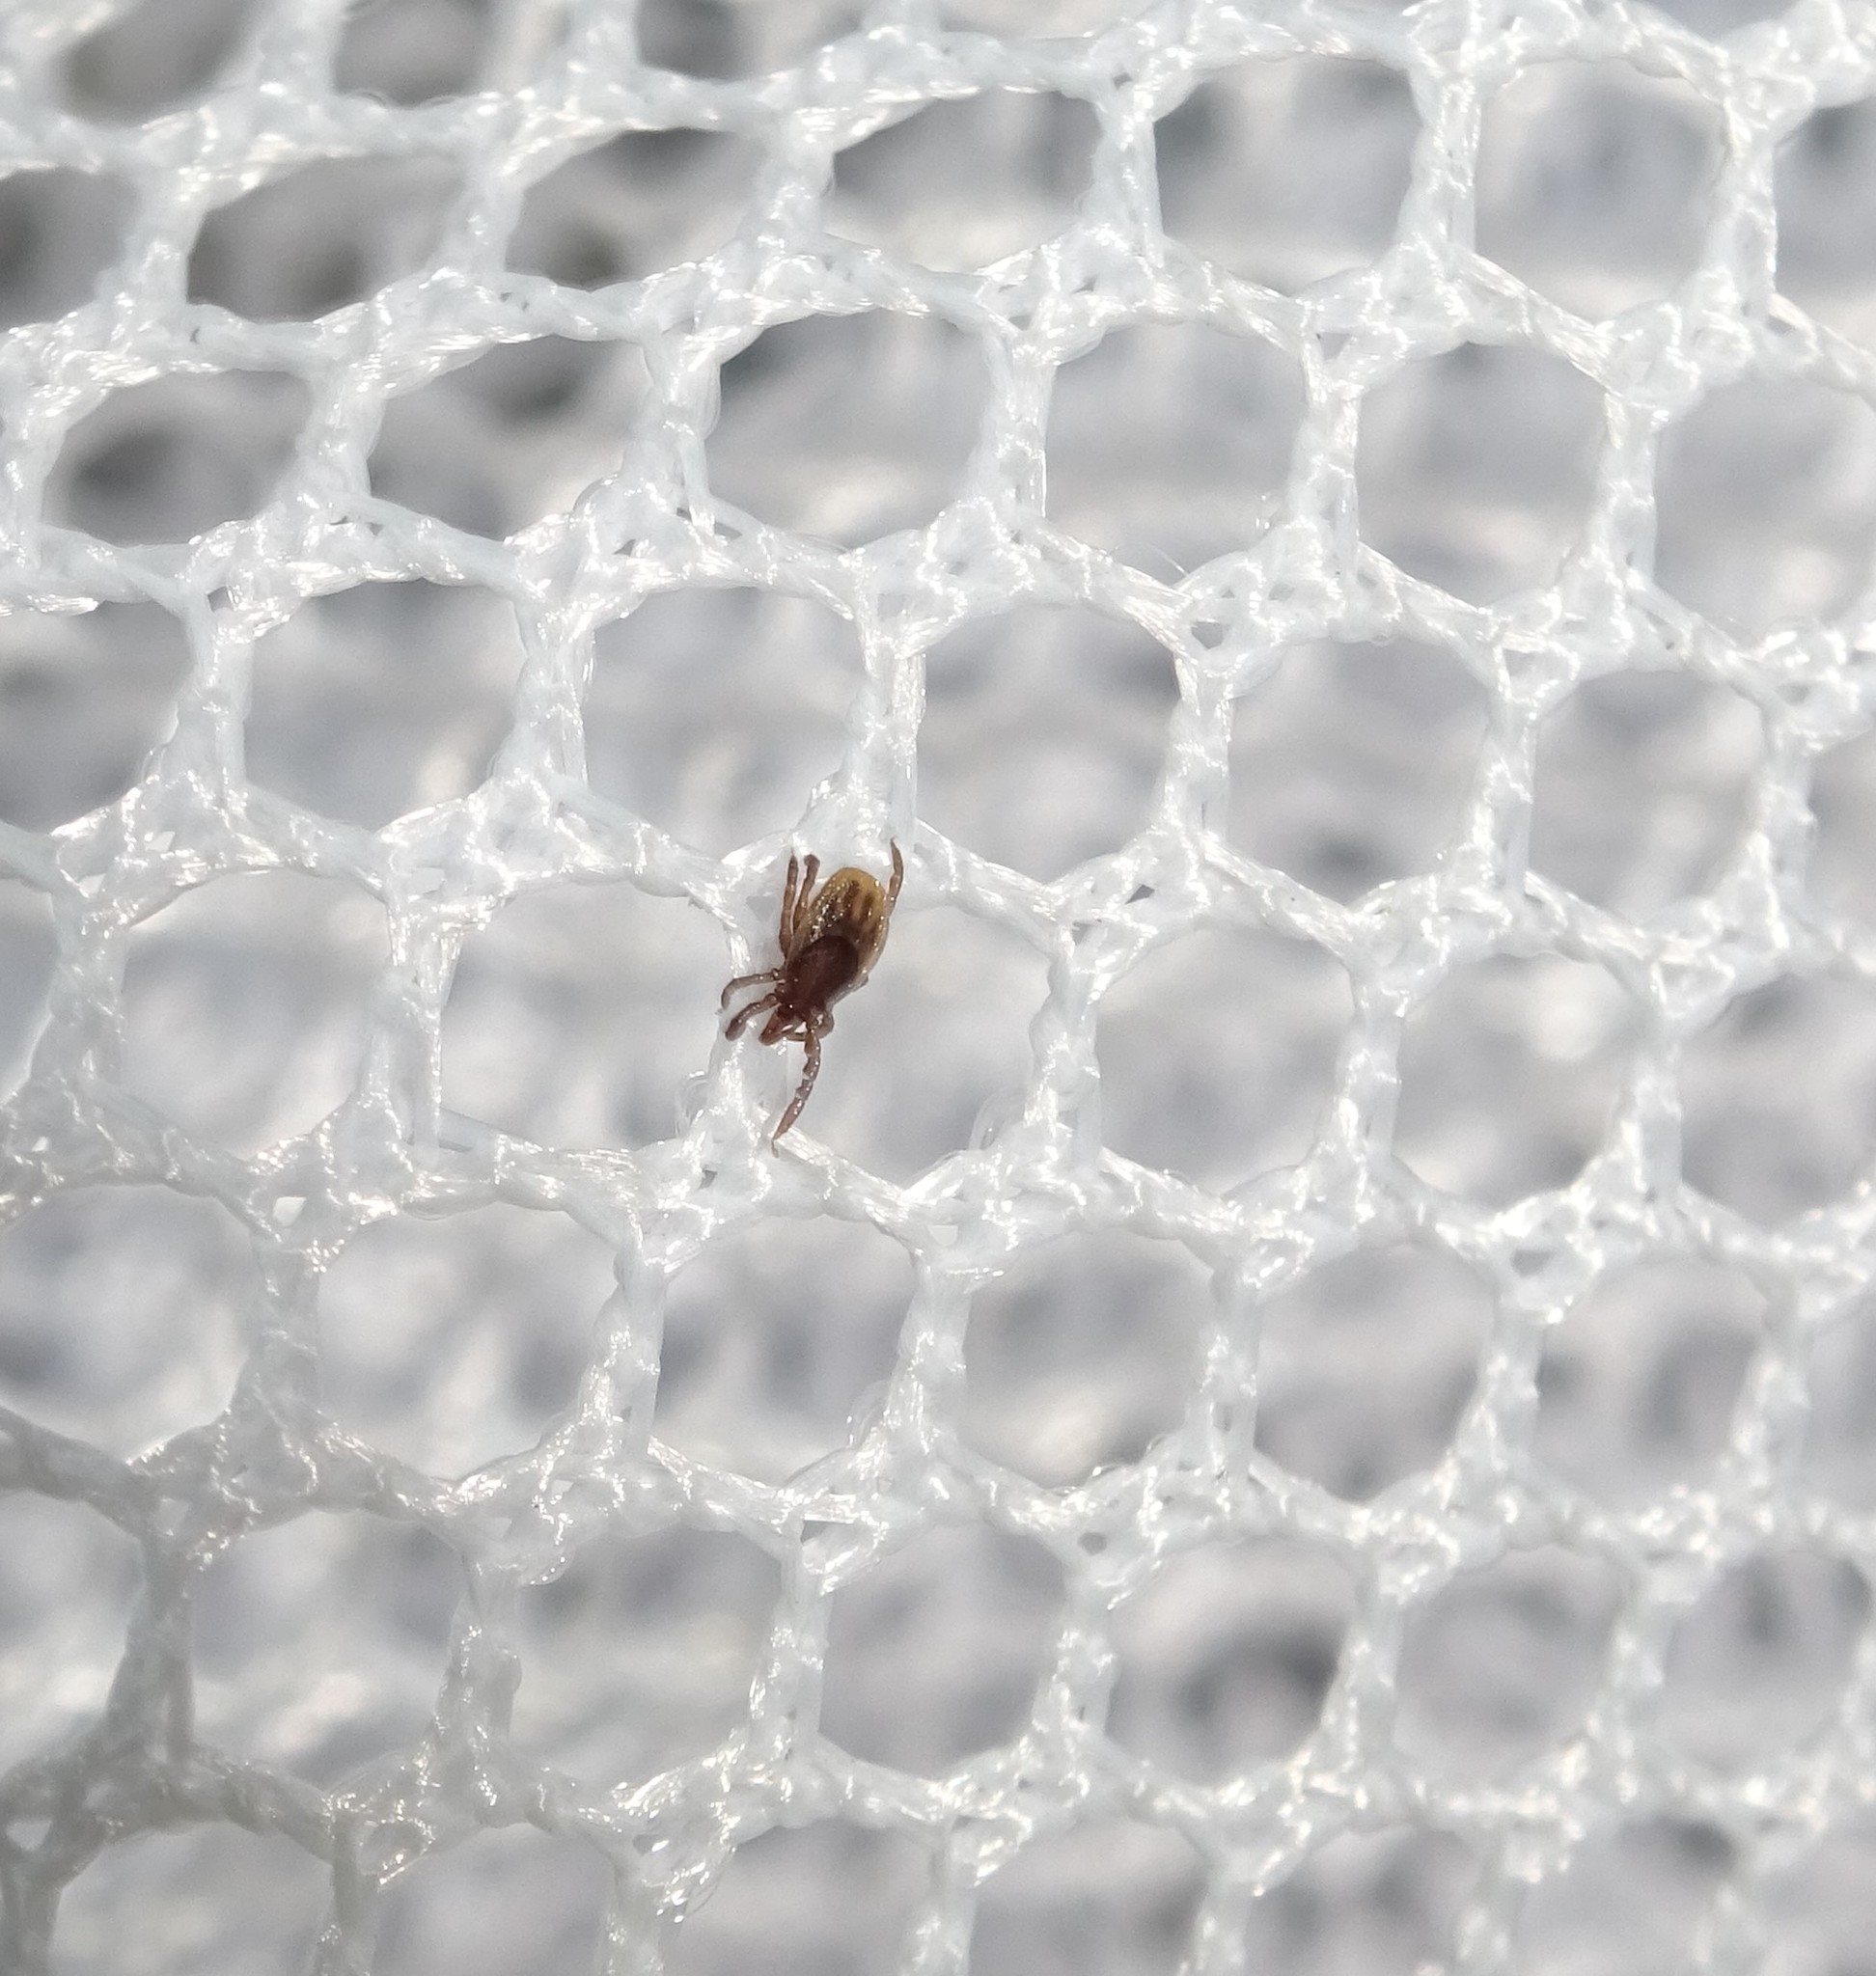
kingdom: Animalia
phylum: Arthropoda
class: Arachnida
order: Ixodida
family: Ixodidae
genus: Ixodes
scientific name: Ixodes ricinus
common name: Castor bean tick
